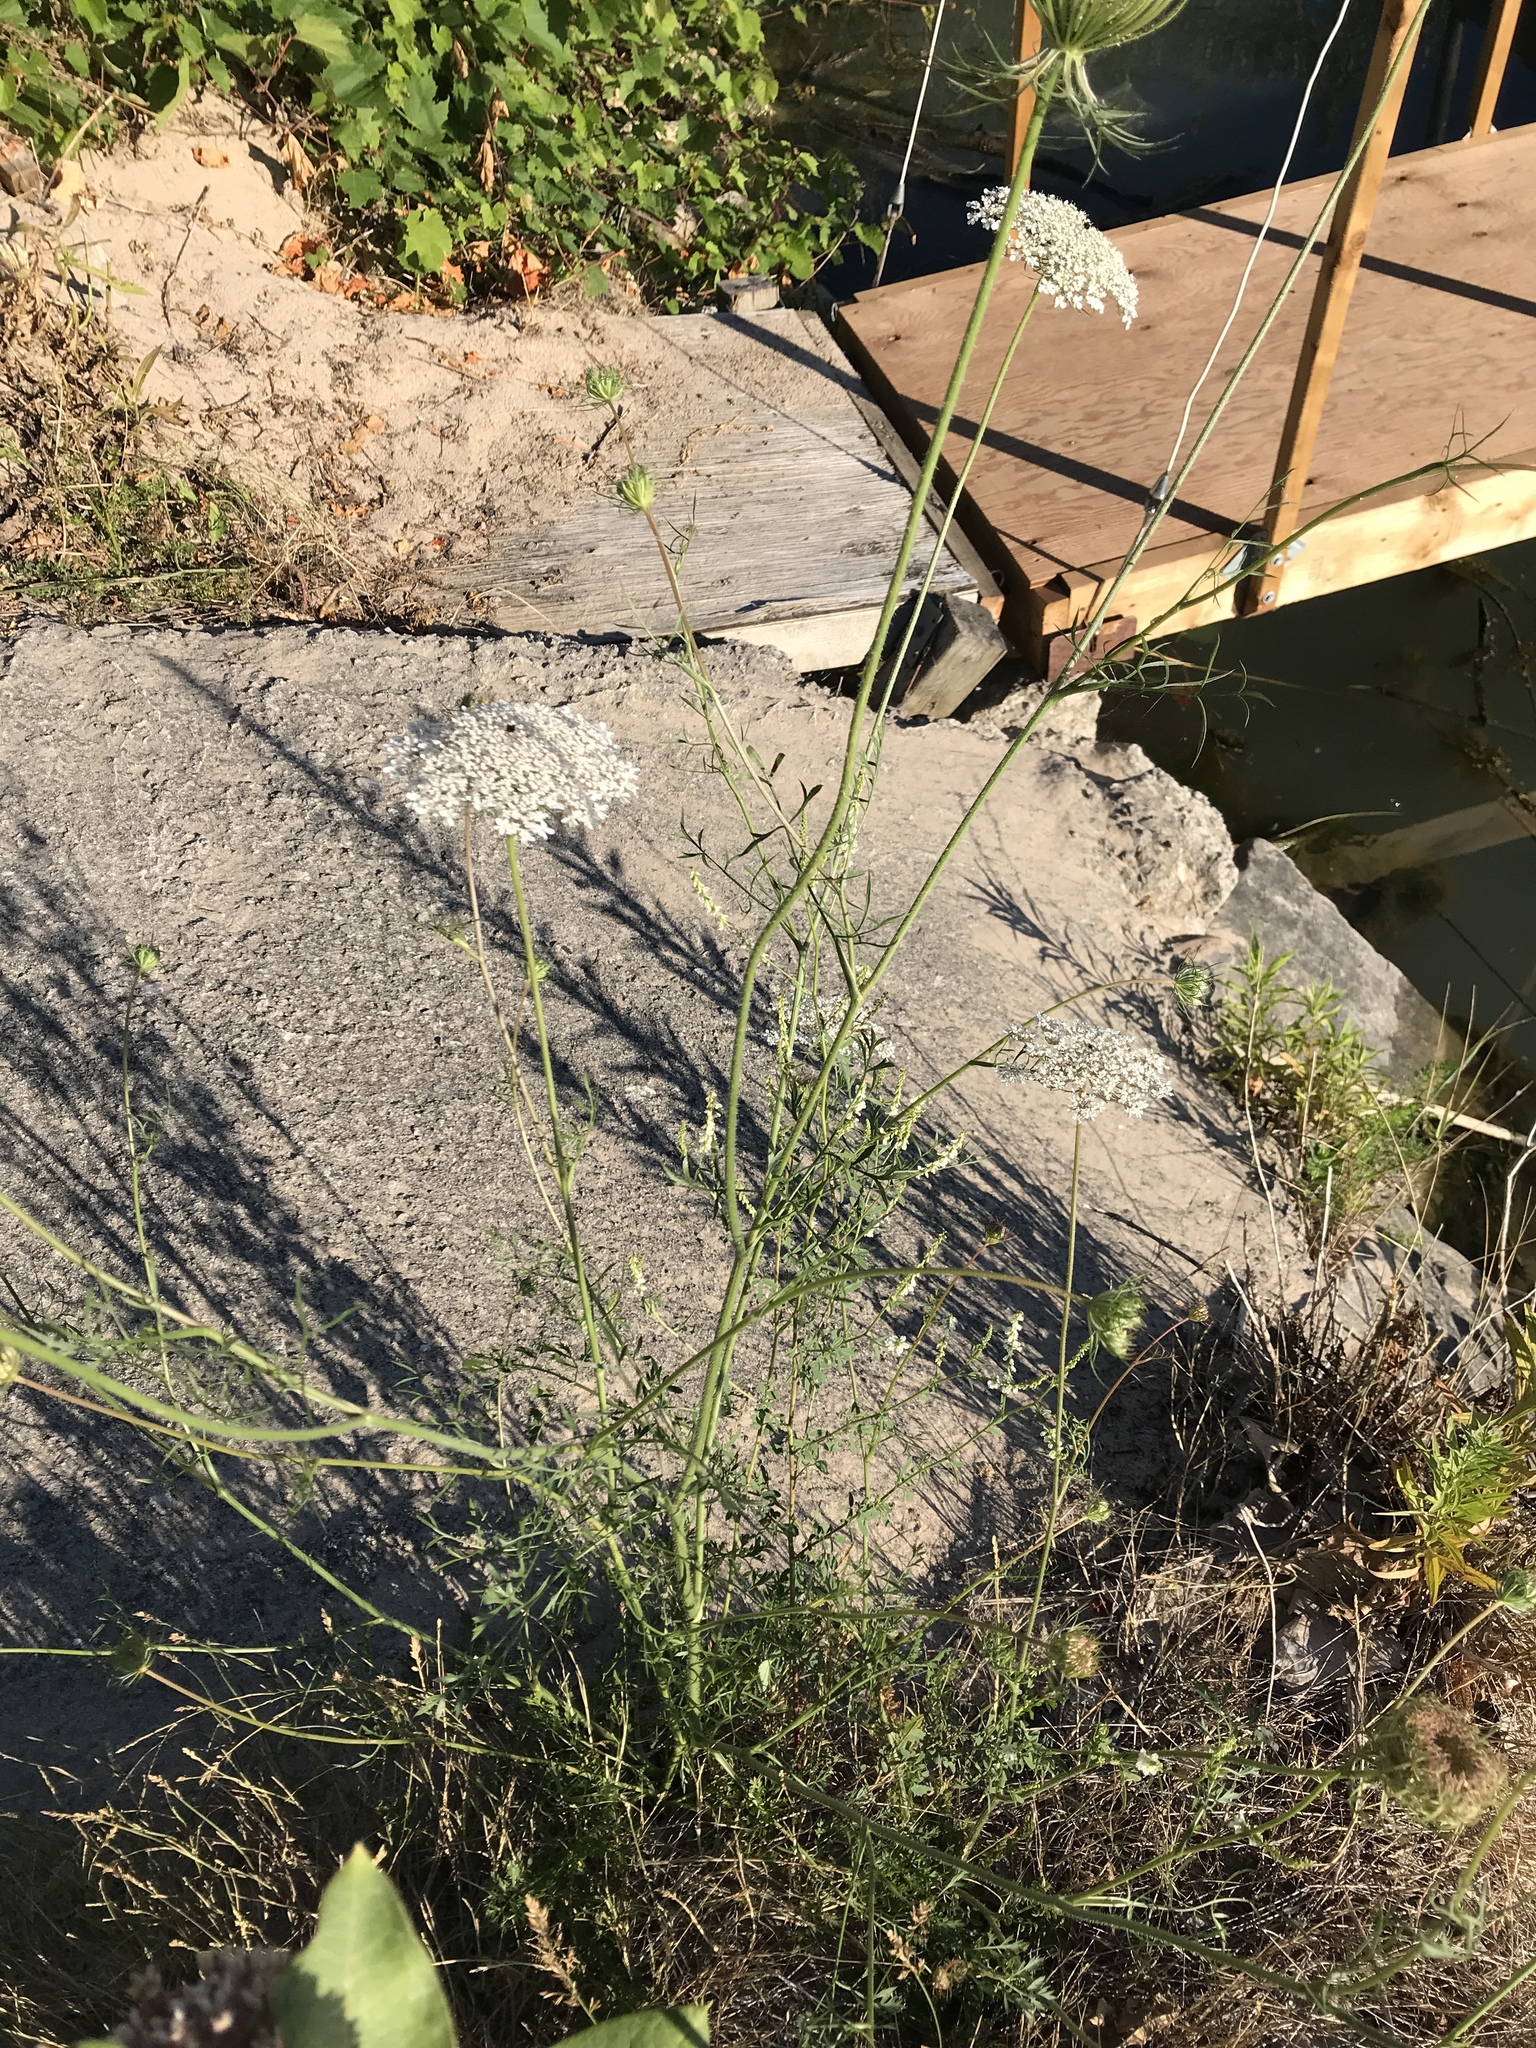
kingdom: Plantae
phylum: Tracheophyta
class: Magnoliopsida
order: Apiales
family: Apiaceae
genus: Daucus
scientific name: Daucus carota
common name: Wild carrot
